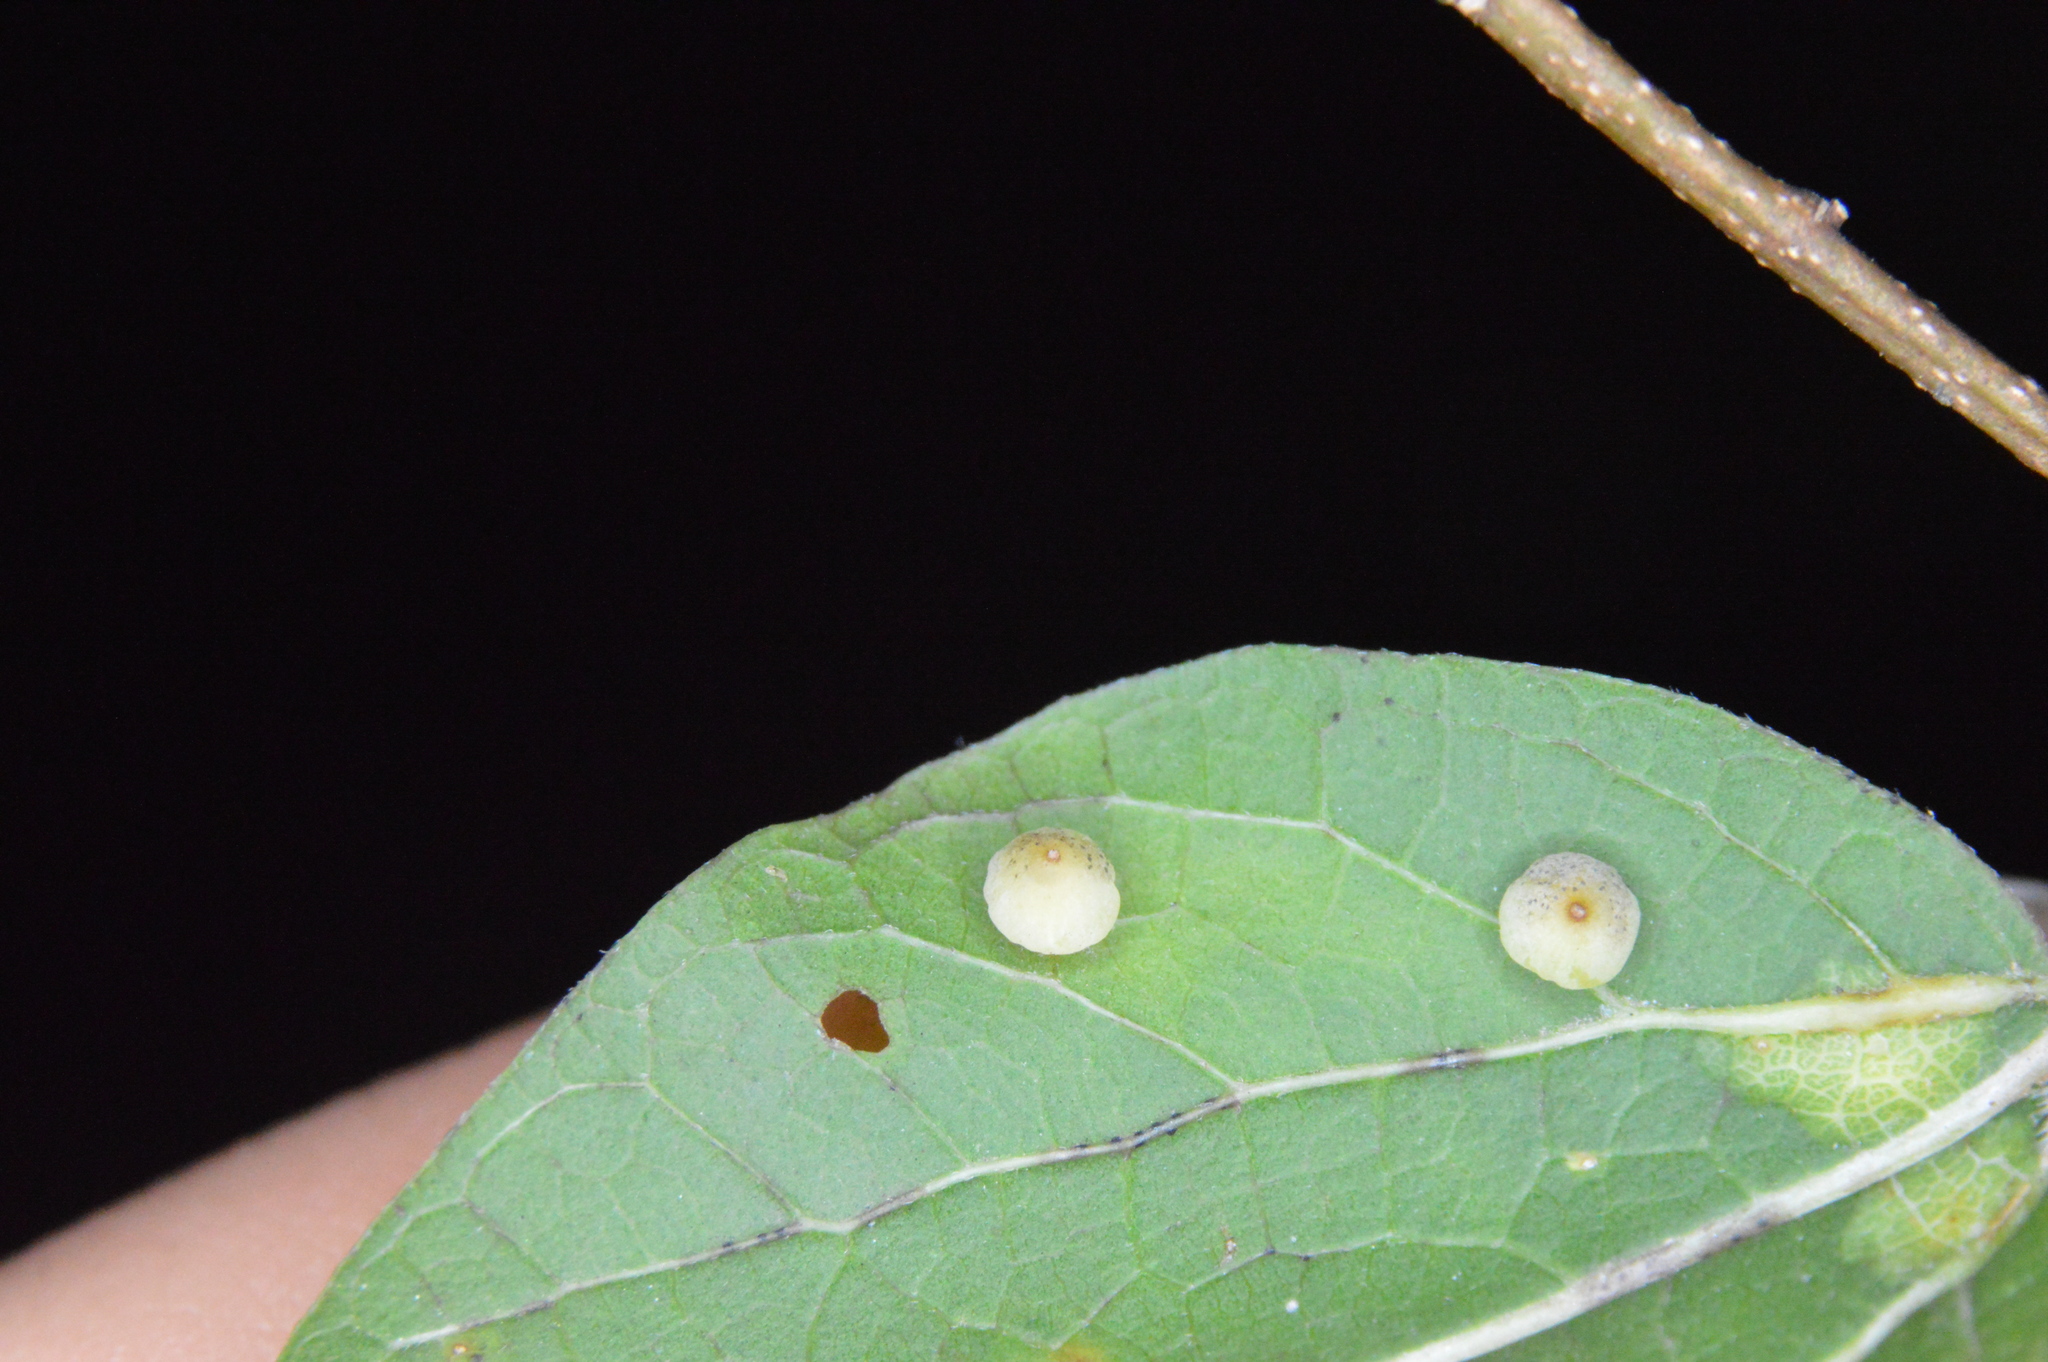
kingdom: Animalia
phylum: Arthropoda
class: Insecta
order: Diptera
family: Cecidomyiidae
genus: Celticecis
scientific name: Celticecis globosa
